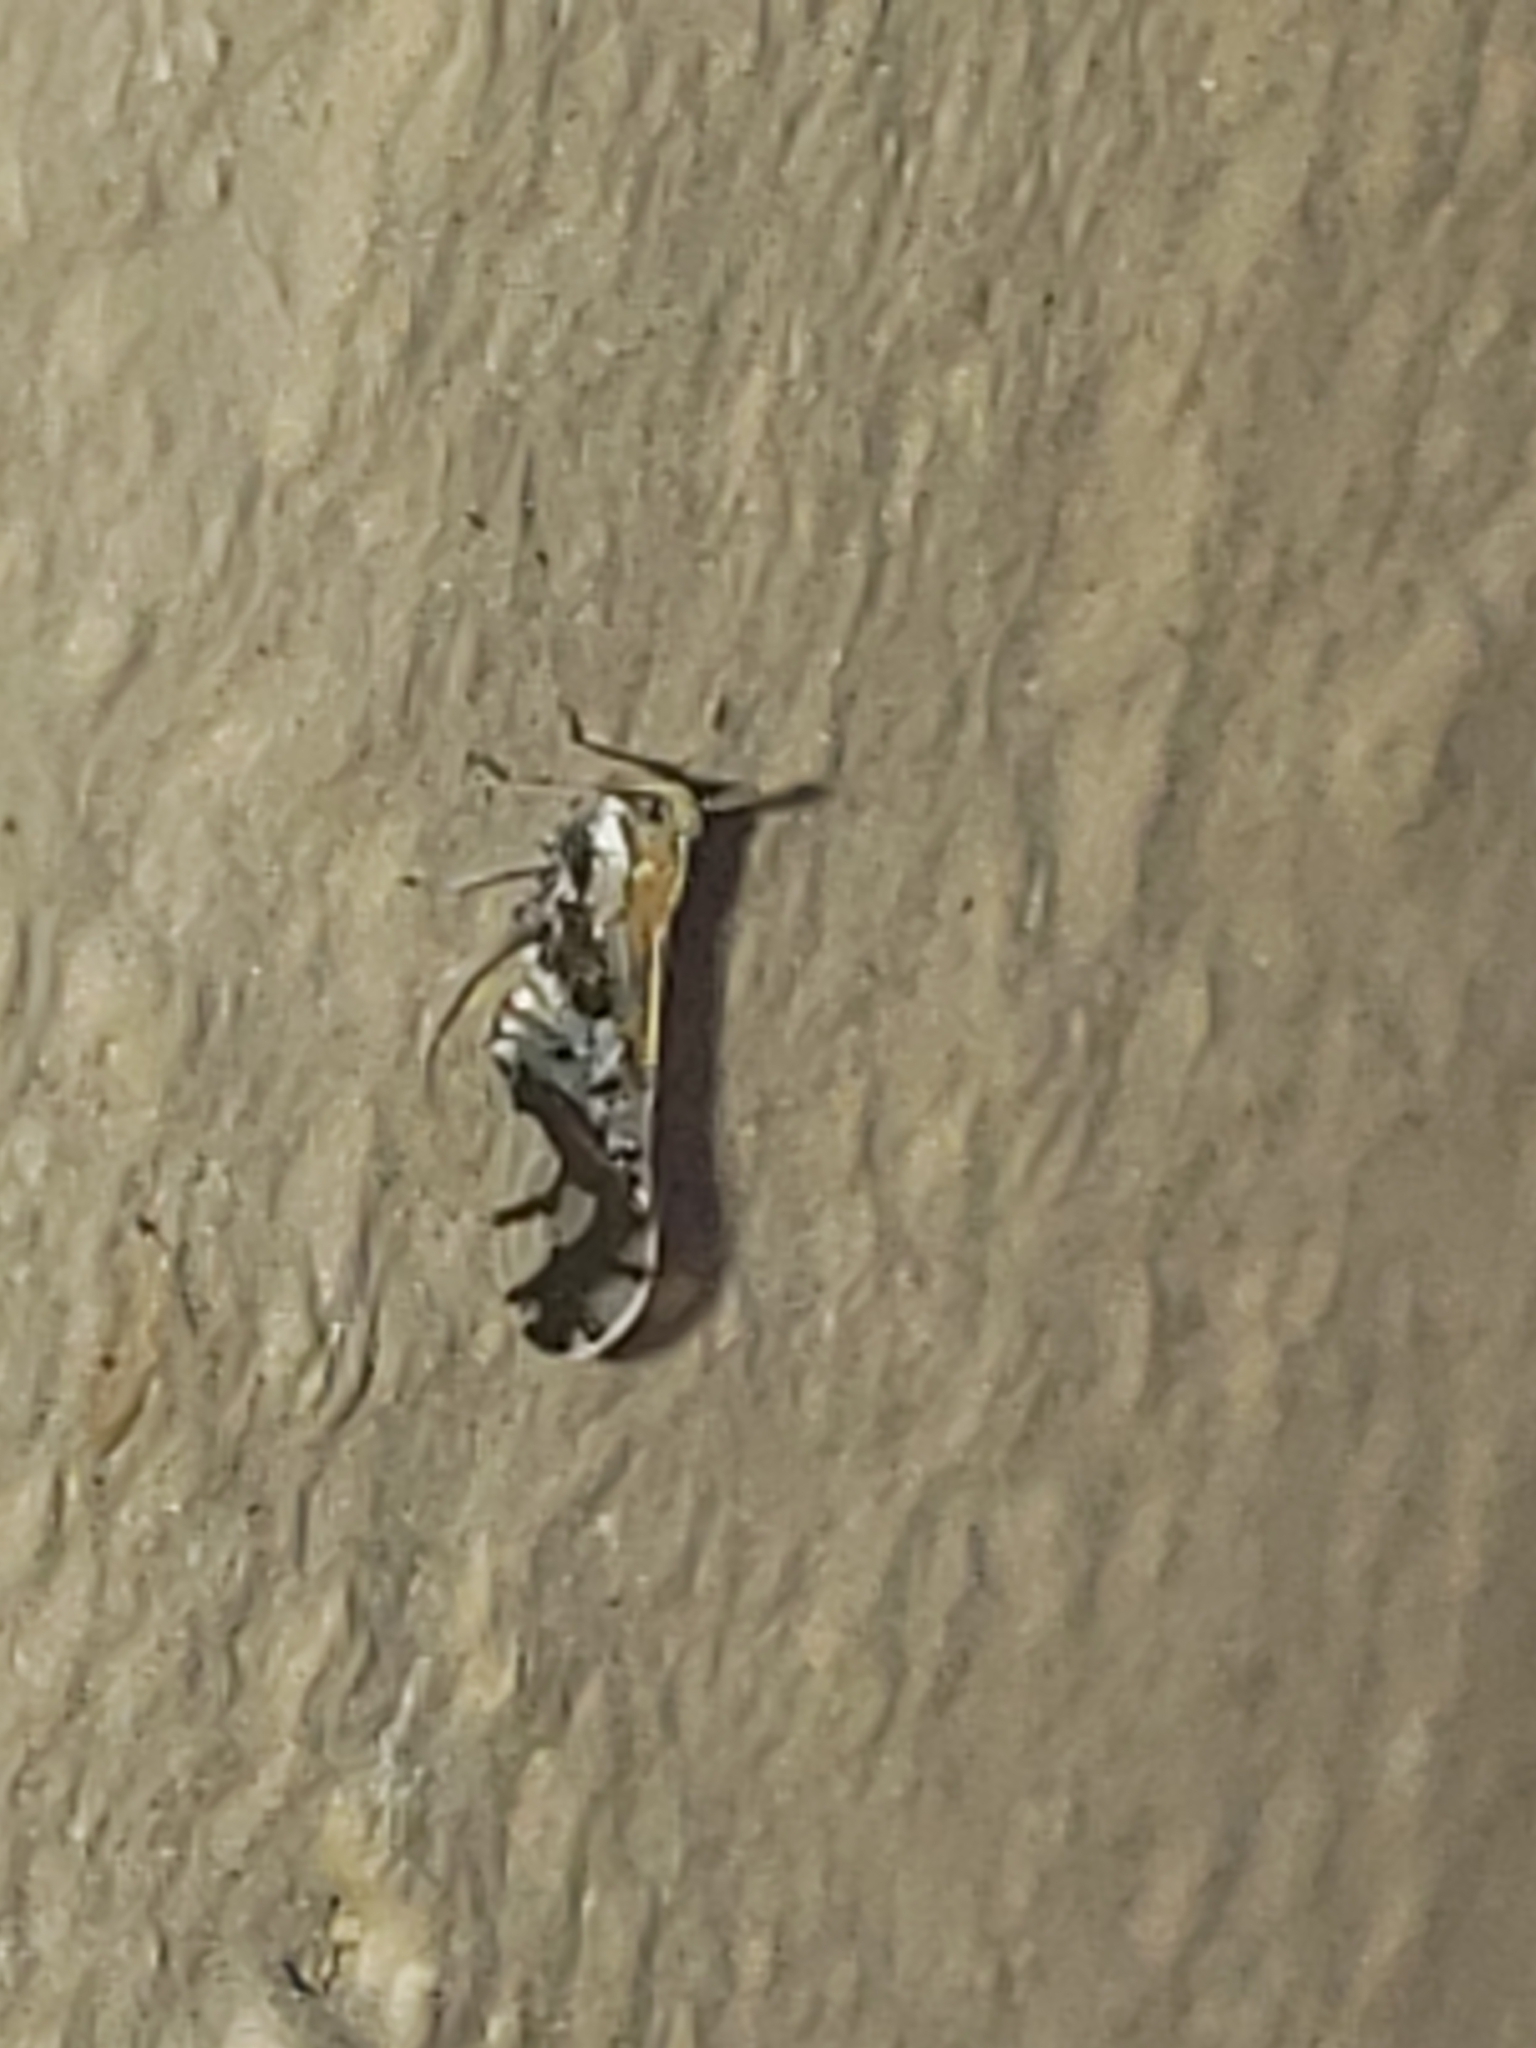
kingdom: Animalia
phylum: Arthropoda
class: Insecta
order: Hemiptera
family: Delphacidae
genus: Liburniella
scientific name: Liburniella ornata
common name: Ornate planthopper
